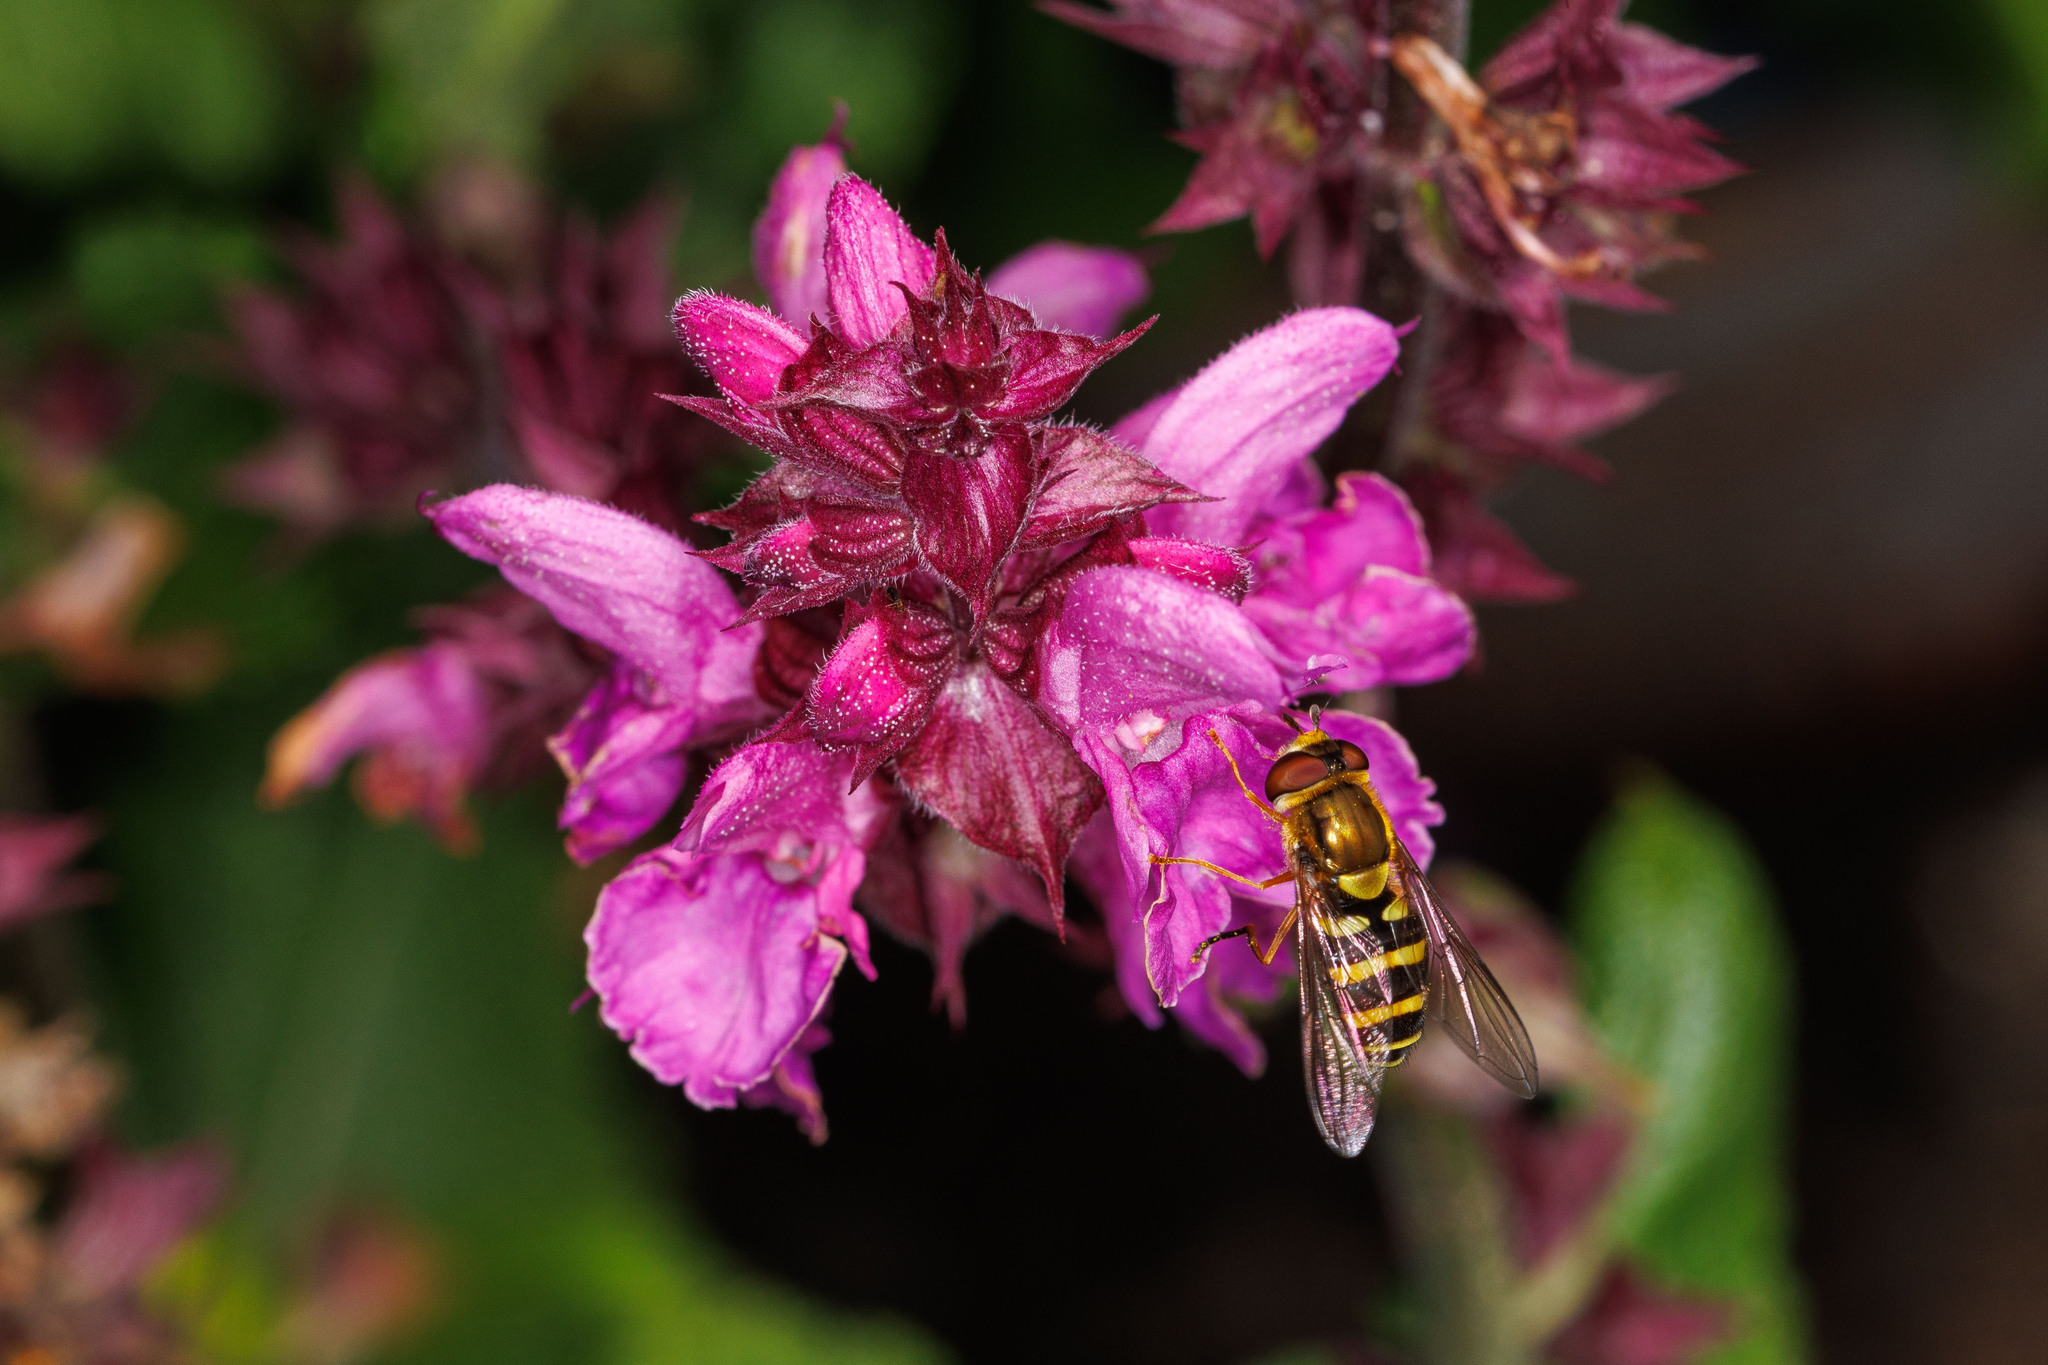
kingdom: Animalia
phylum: Arthropoda
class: Insecta
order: Diptera
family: Syrphidae
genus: Syrphus
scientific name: Syrphus opinator
